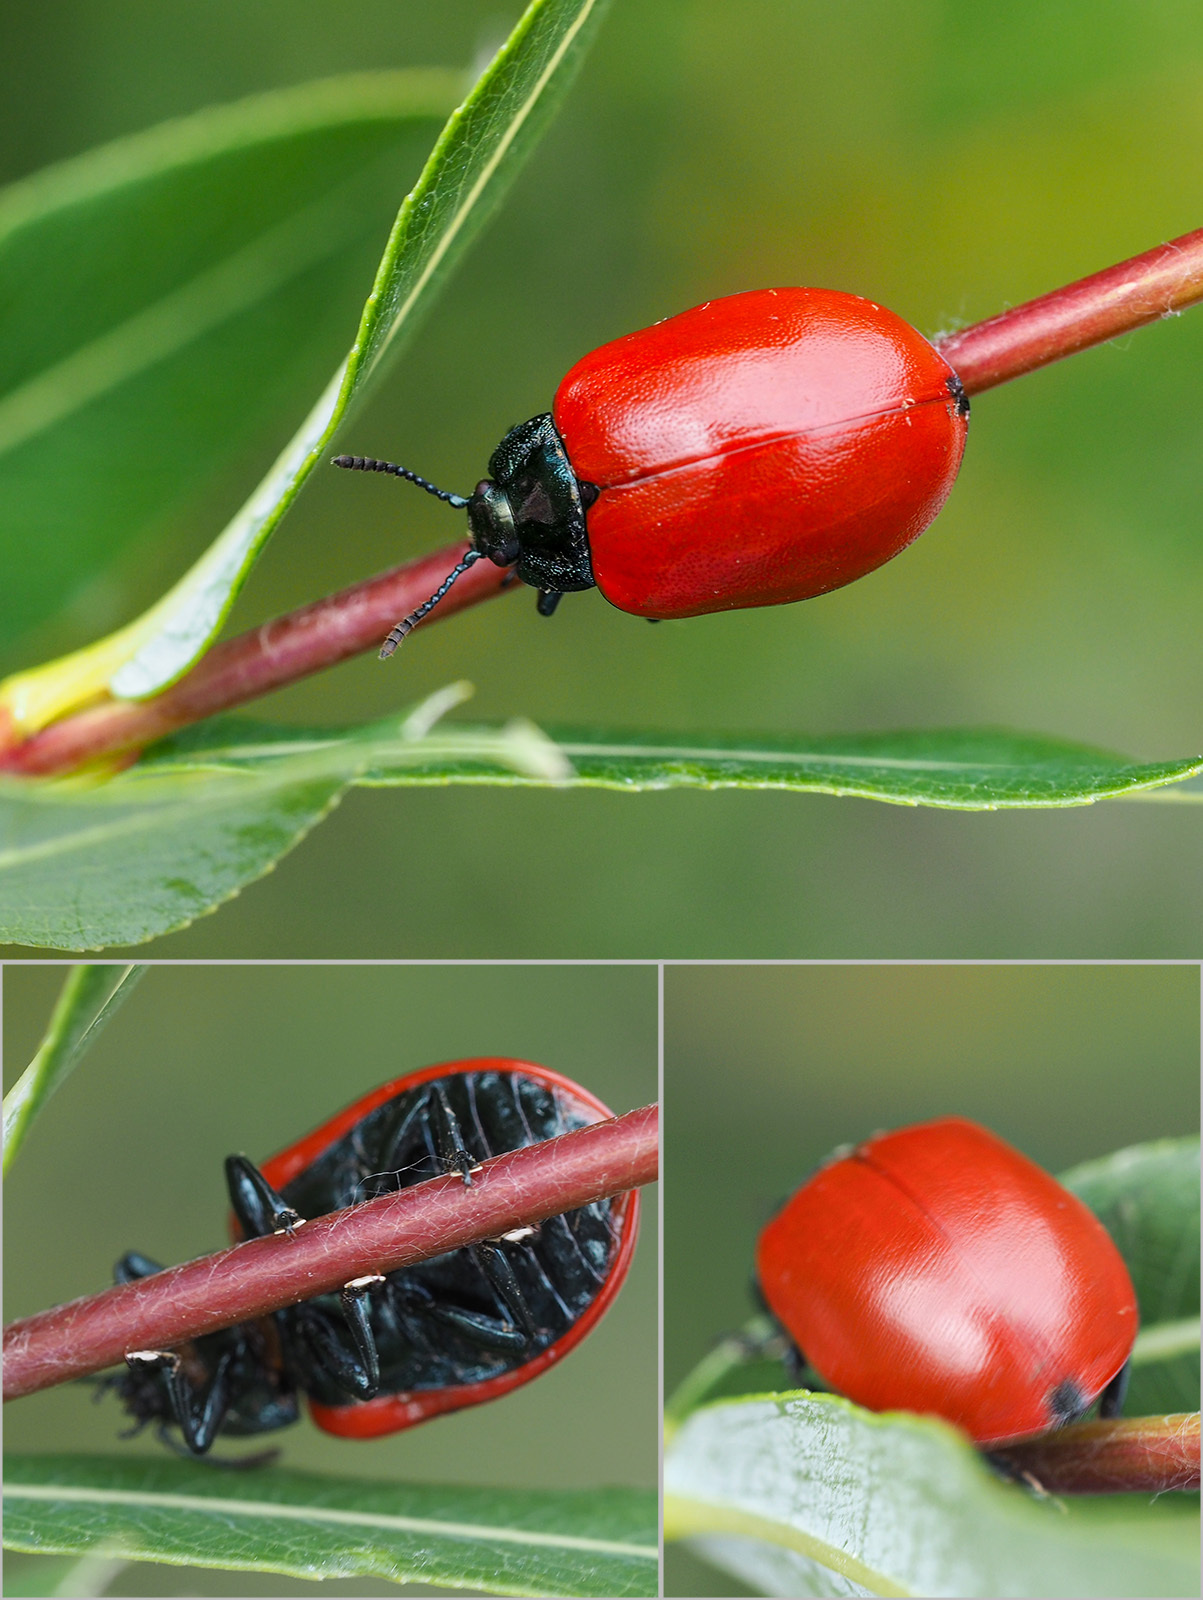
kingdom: Animalia
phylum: Arthropoda
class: Insecta
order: Coleoptera
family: Chrysomelidae
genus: Chrysomela
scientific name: Chrysomela populi
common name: Red poplar leaf beetle
